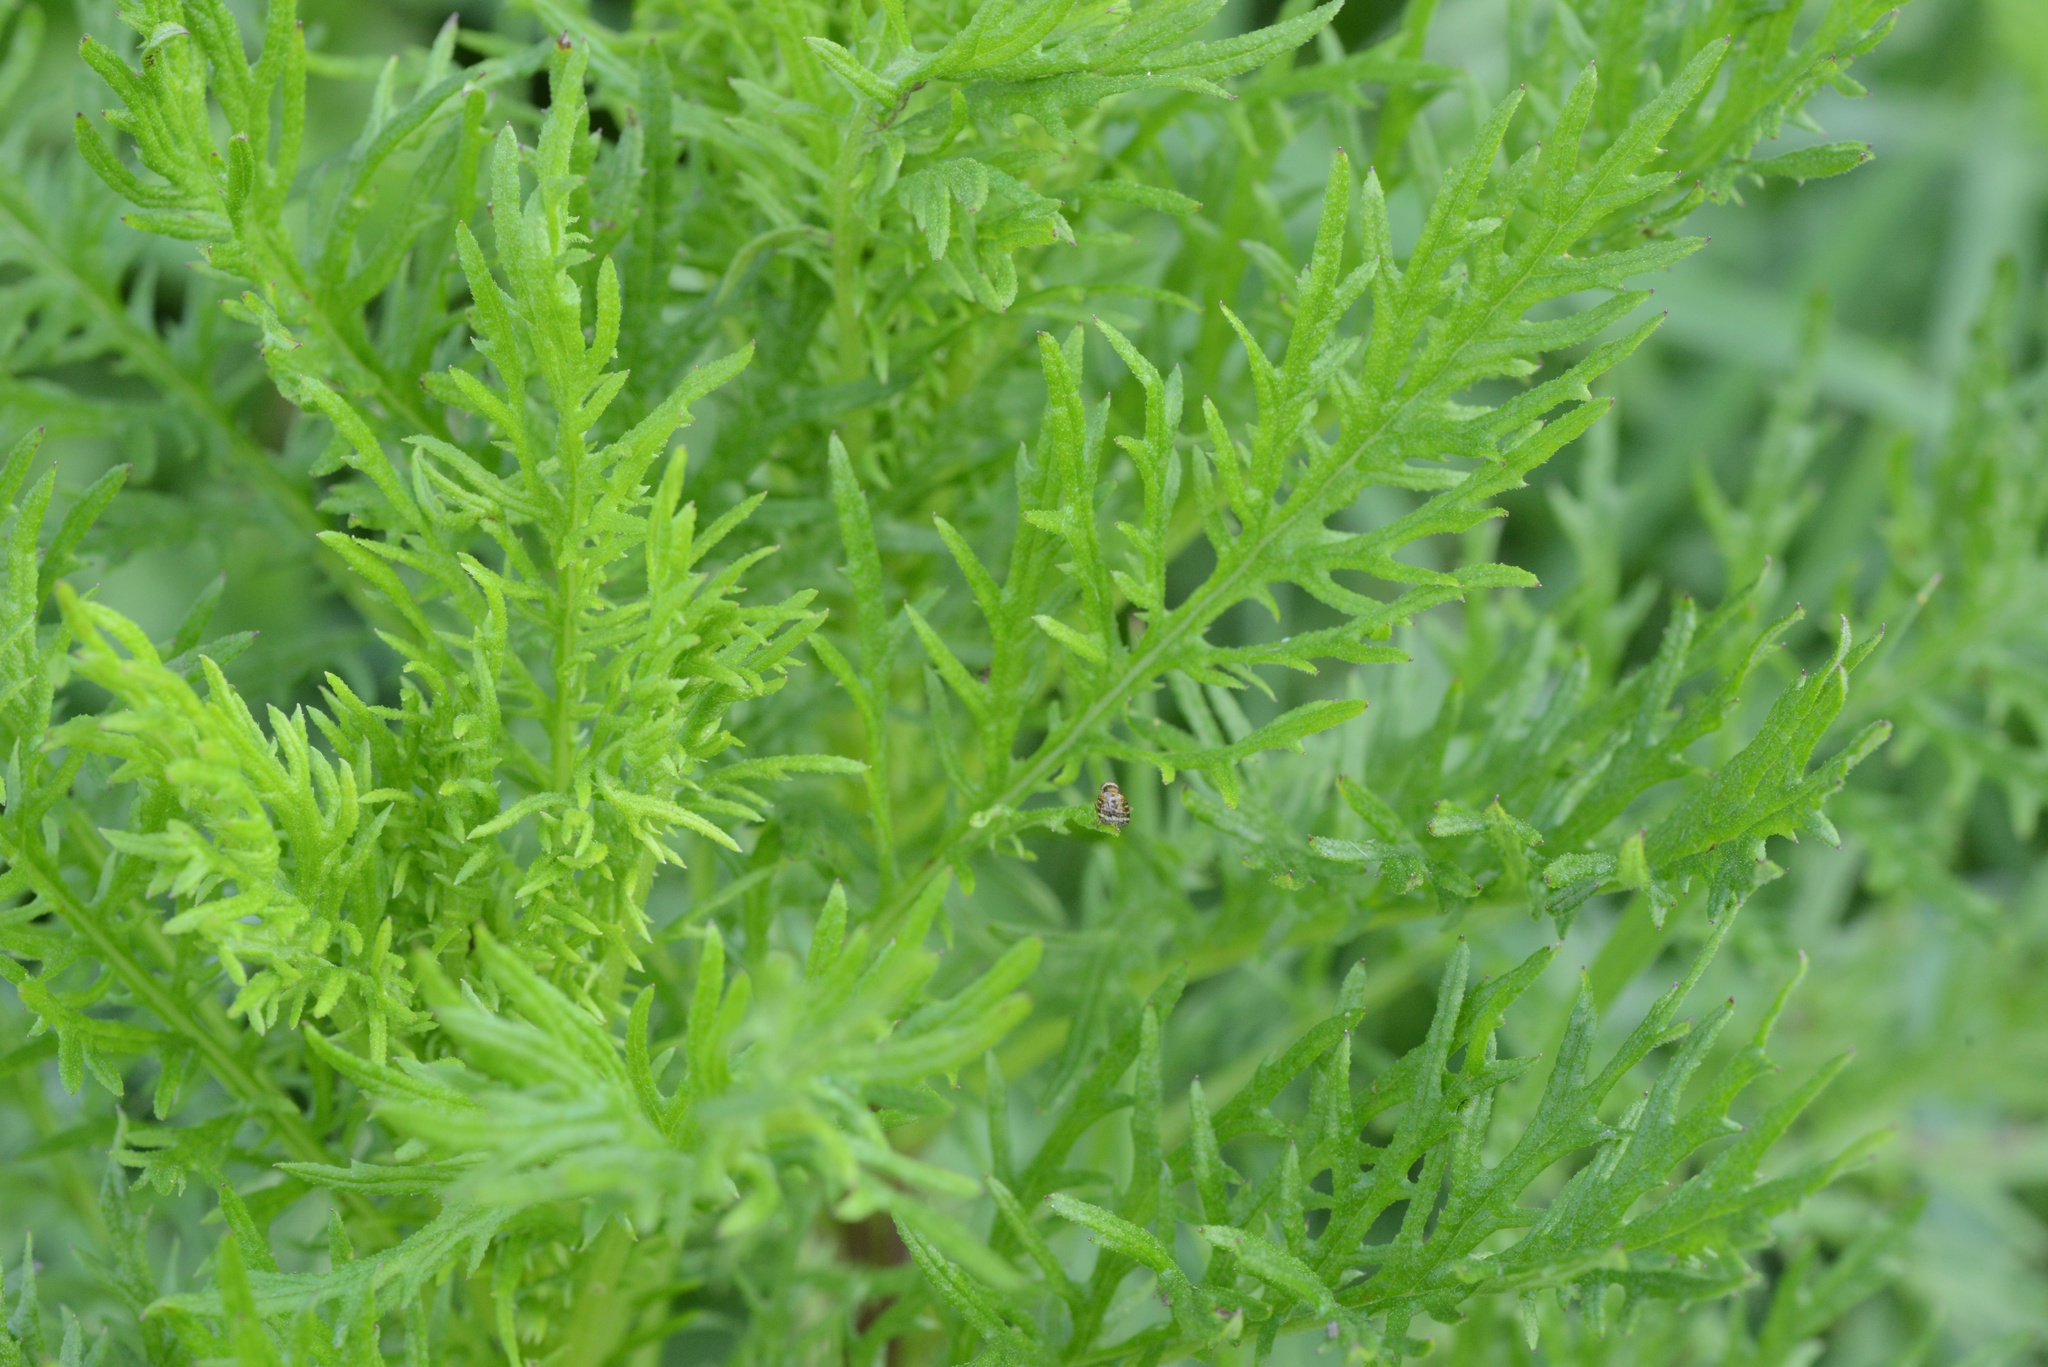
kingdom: Plantae
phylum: Tracheophyta
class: Magnoliopsida
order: Asterales
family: Asteraceae
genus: Senecio
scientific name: Senecio bipinnatisectus
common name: Australian fireweed
